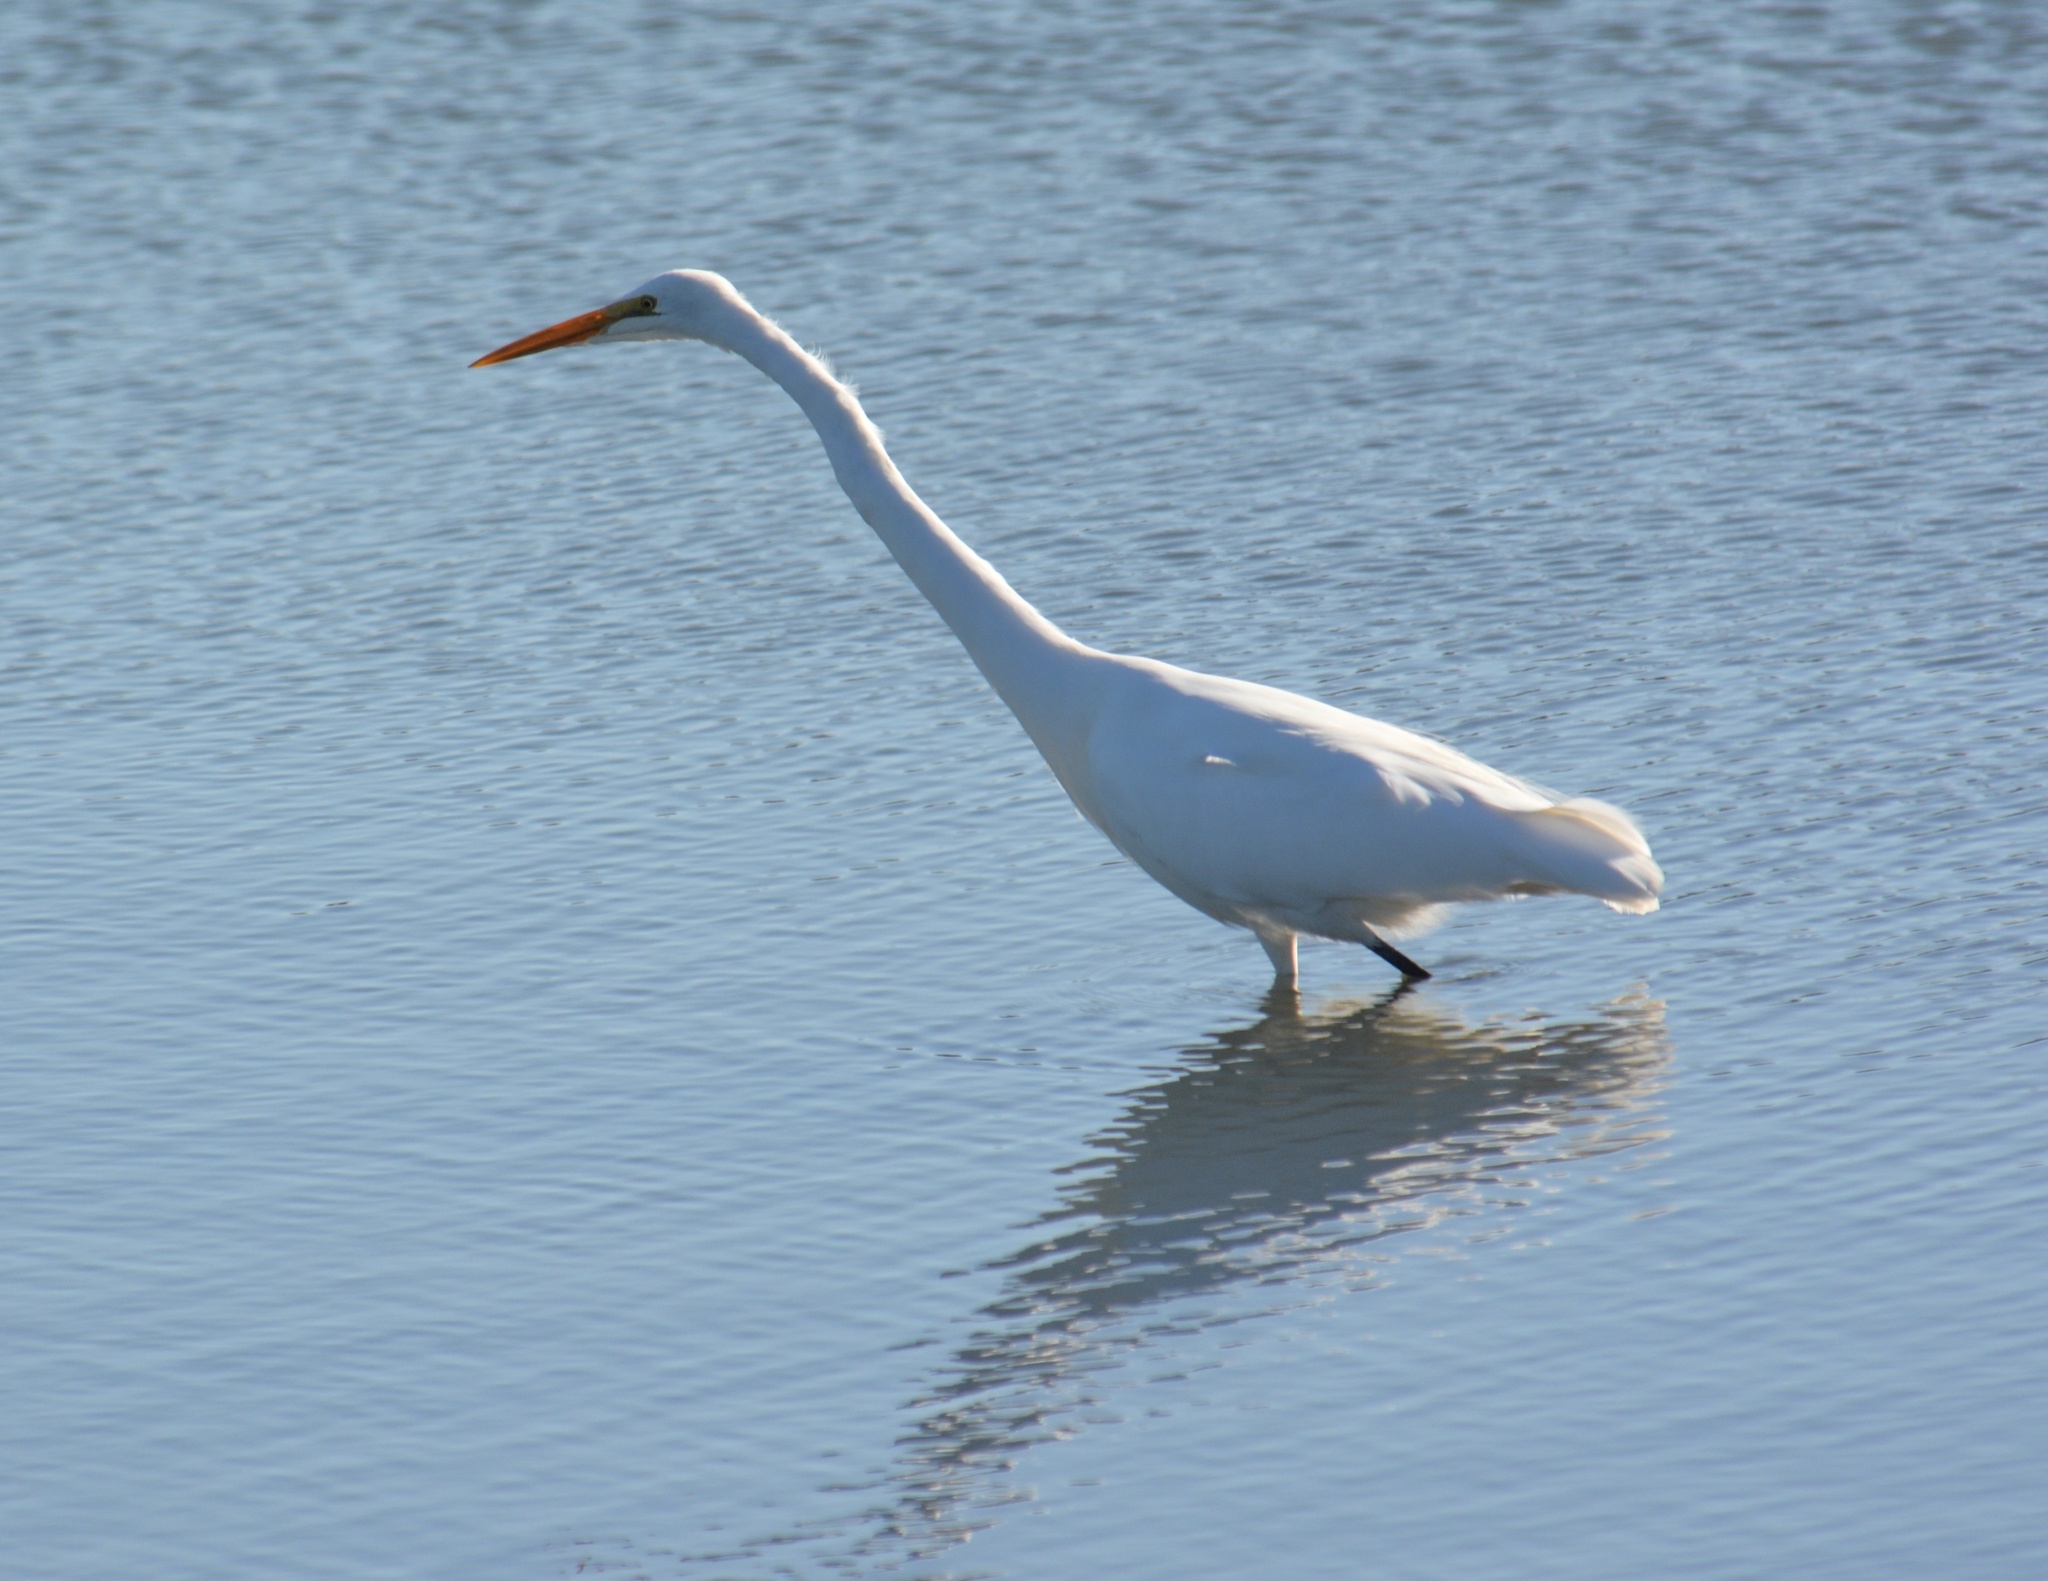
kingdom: Animalia
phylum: Chordata
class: Aves
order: Pelecaniformes
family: Ardeidae
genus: Ardea
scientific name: Ardea alba
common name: Great egret
